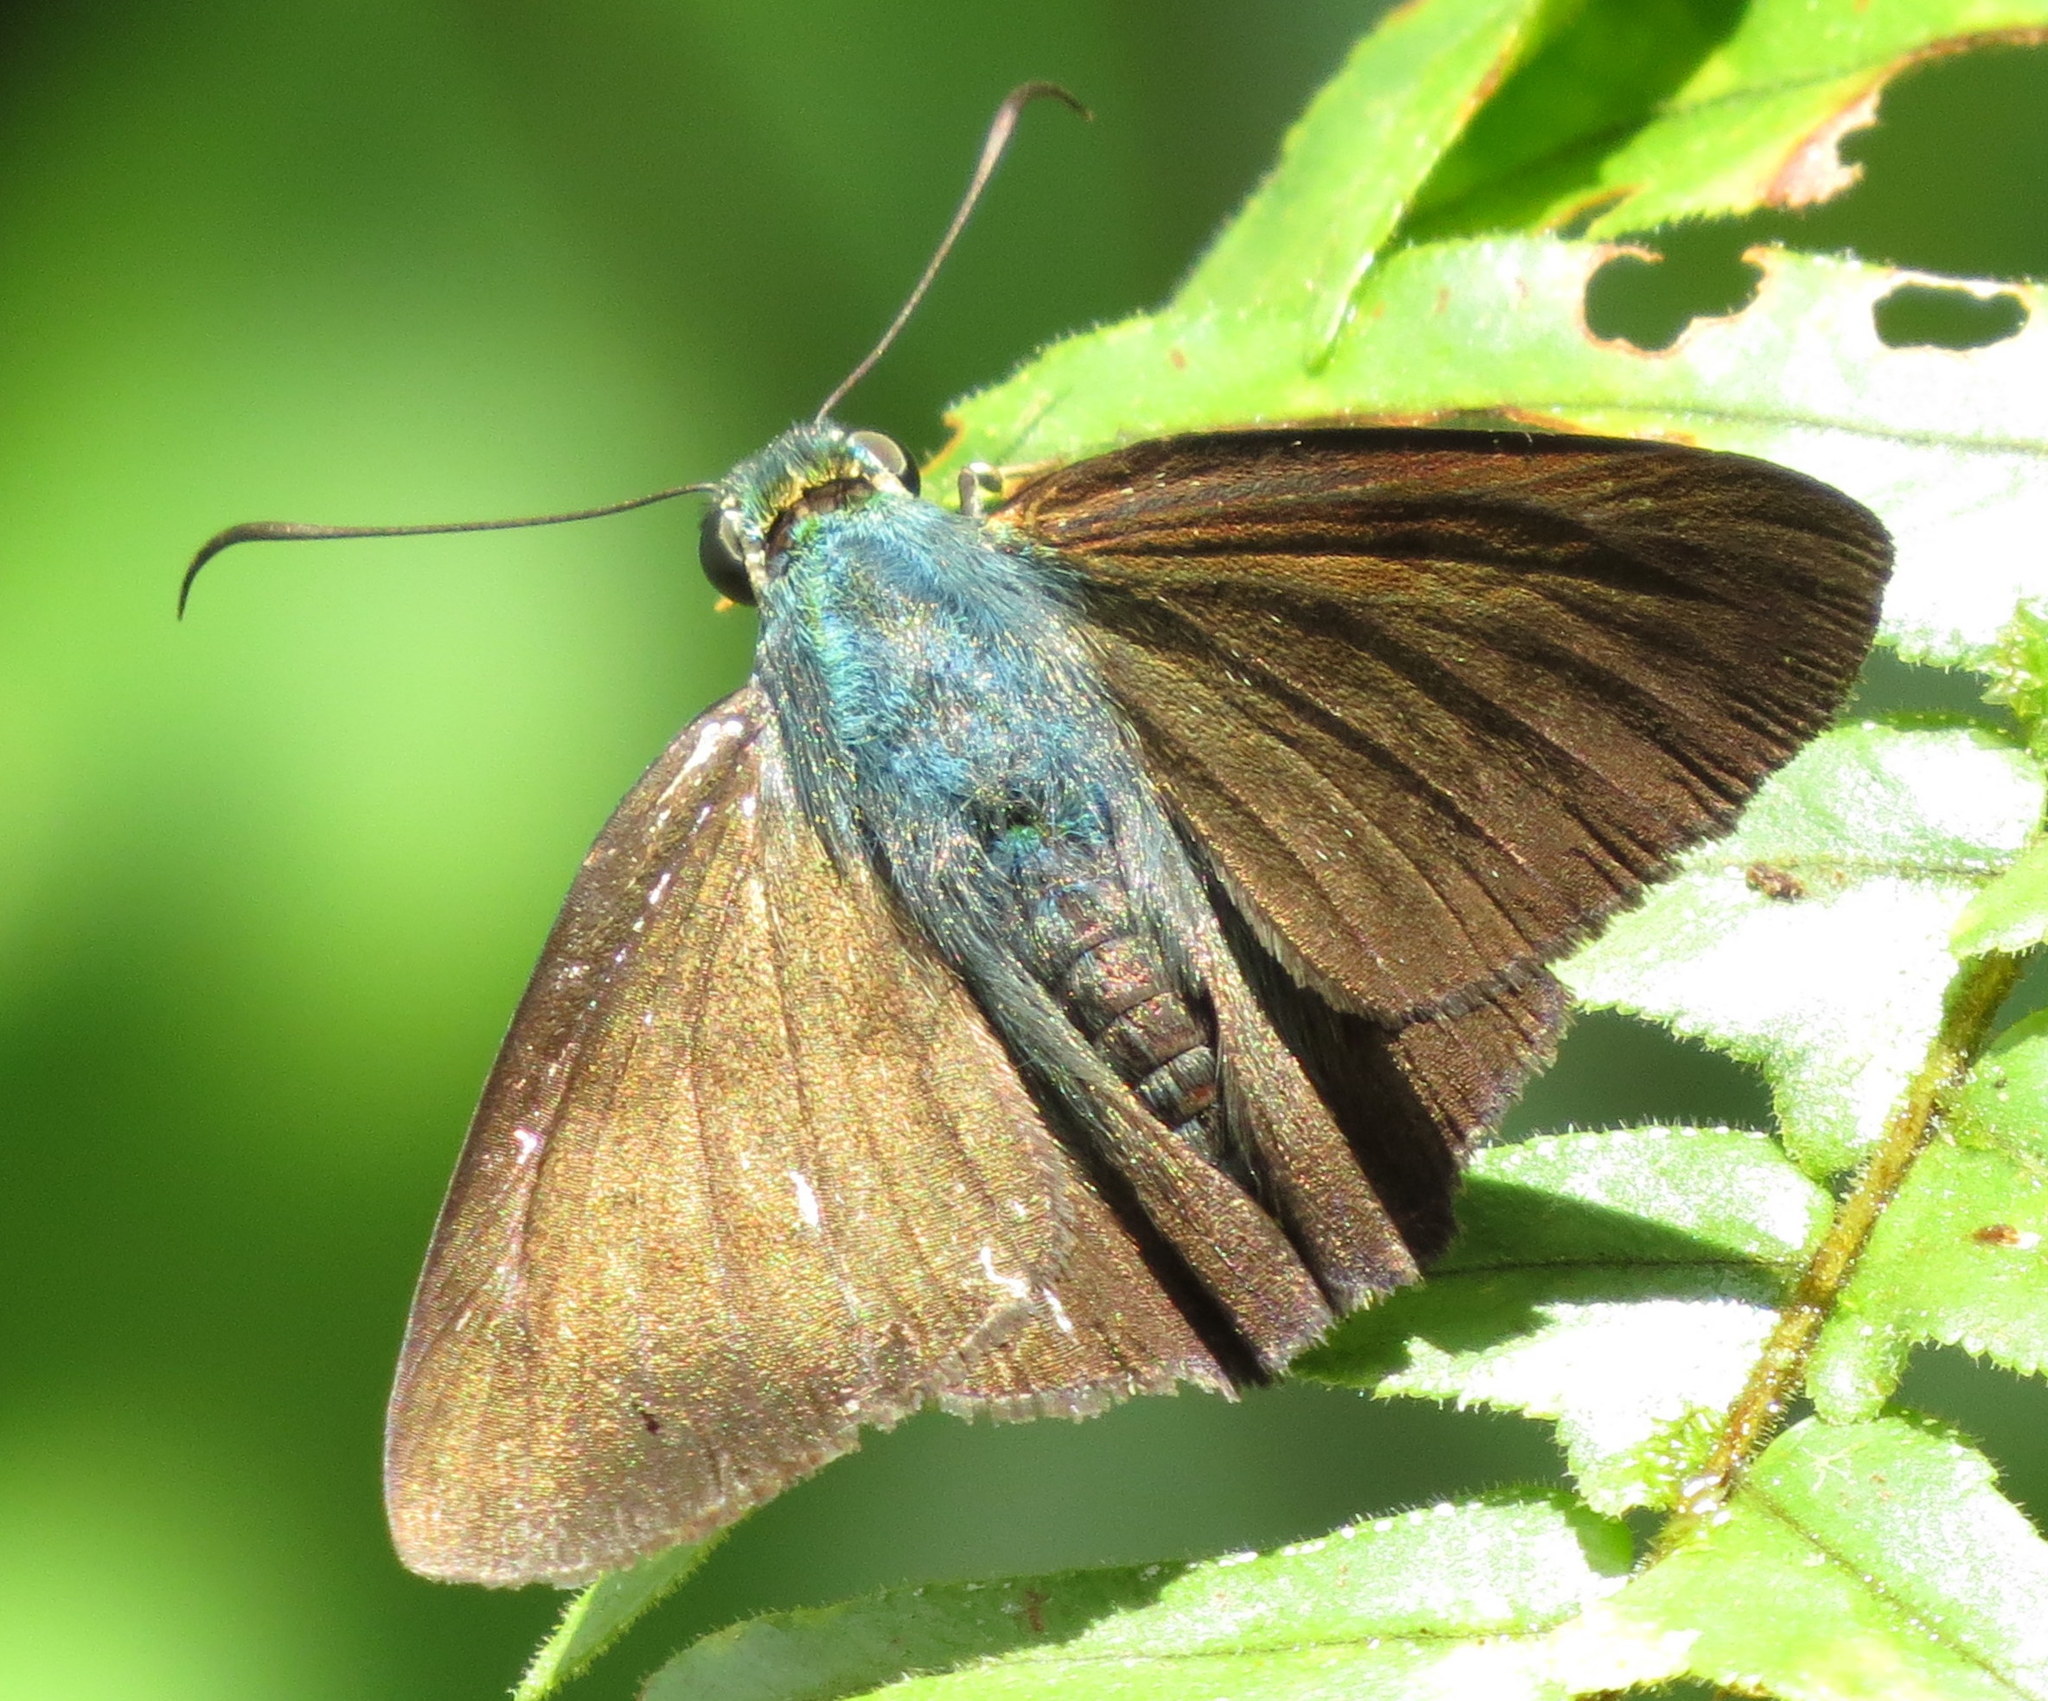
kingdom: Animalia
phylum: Arthropoda
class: Insecta
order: Lepidoptera
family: Hesperiidae
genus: Astraptes
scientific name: Astraptes jaira
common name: Jamaican flasher
